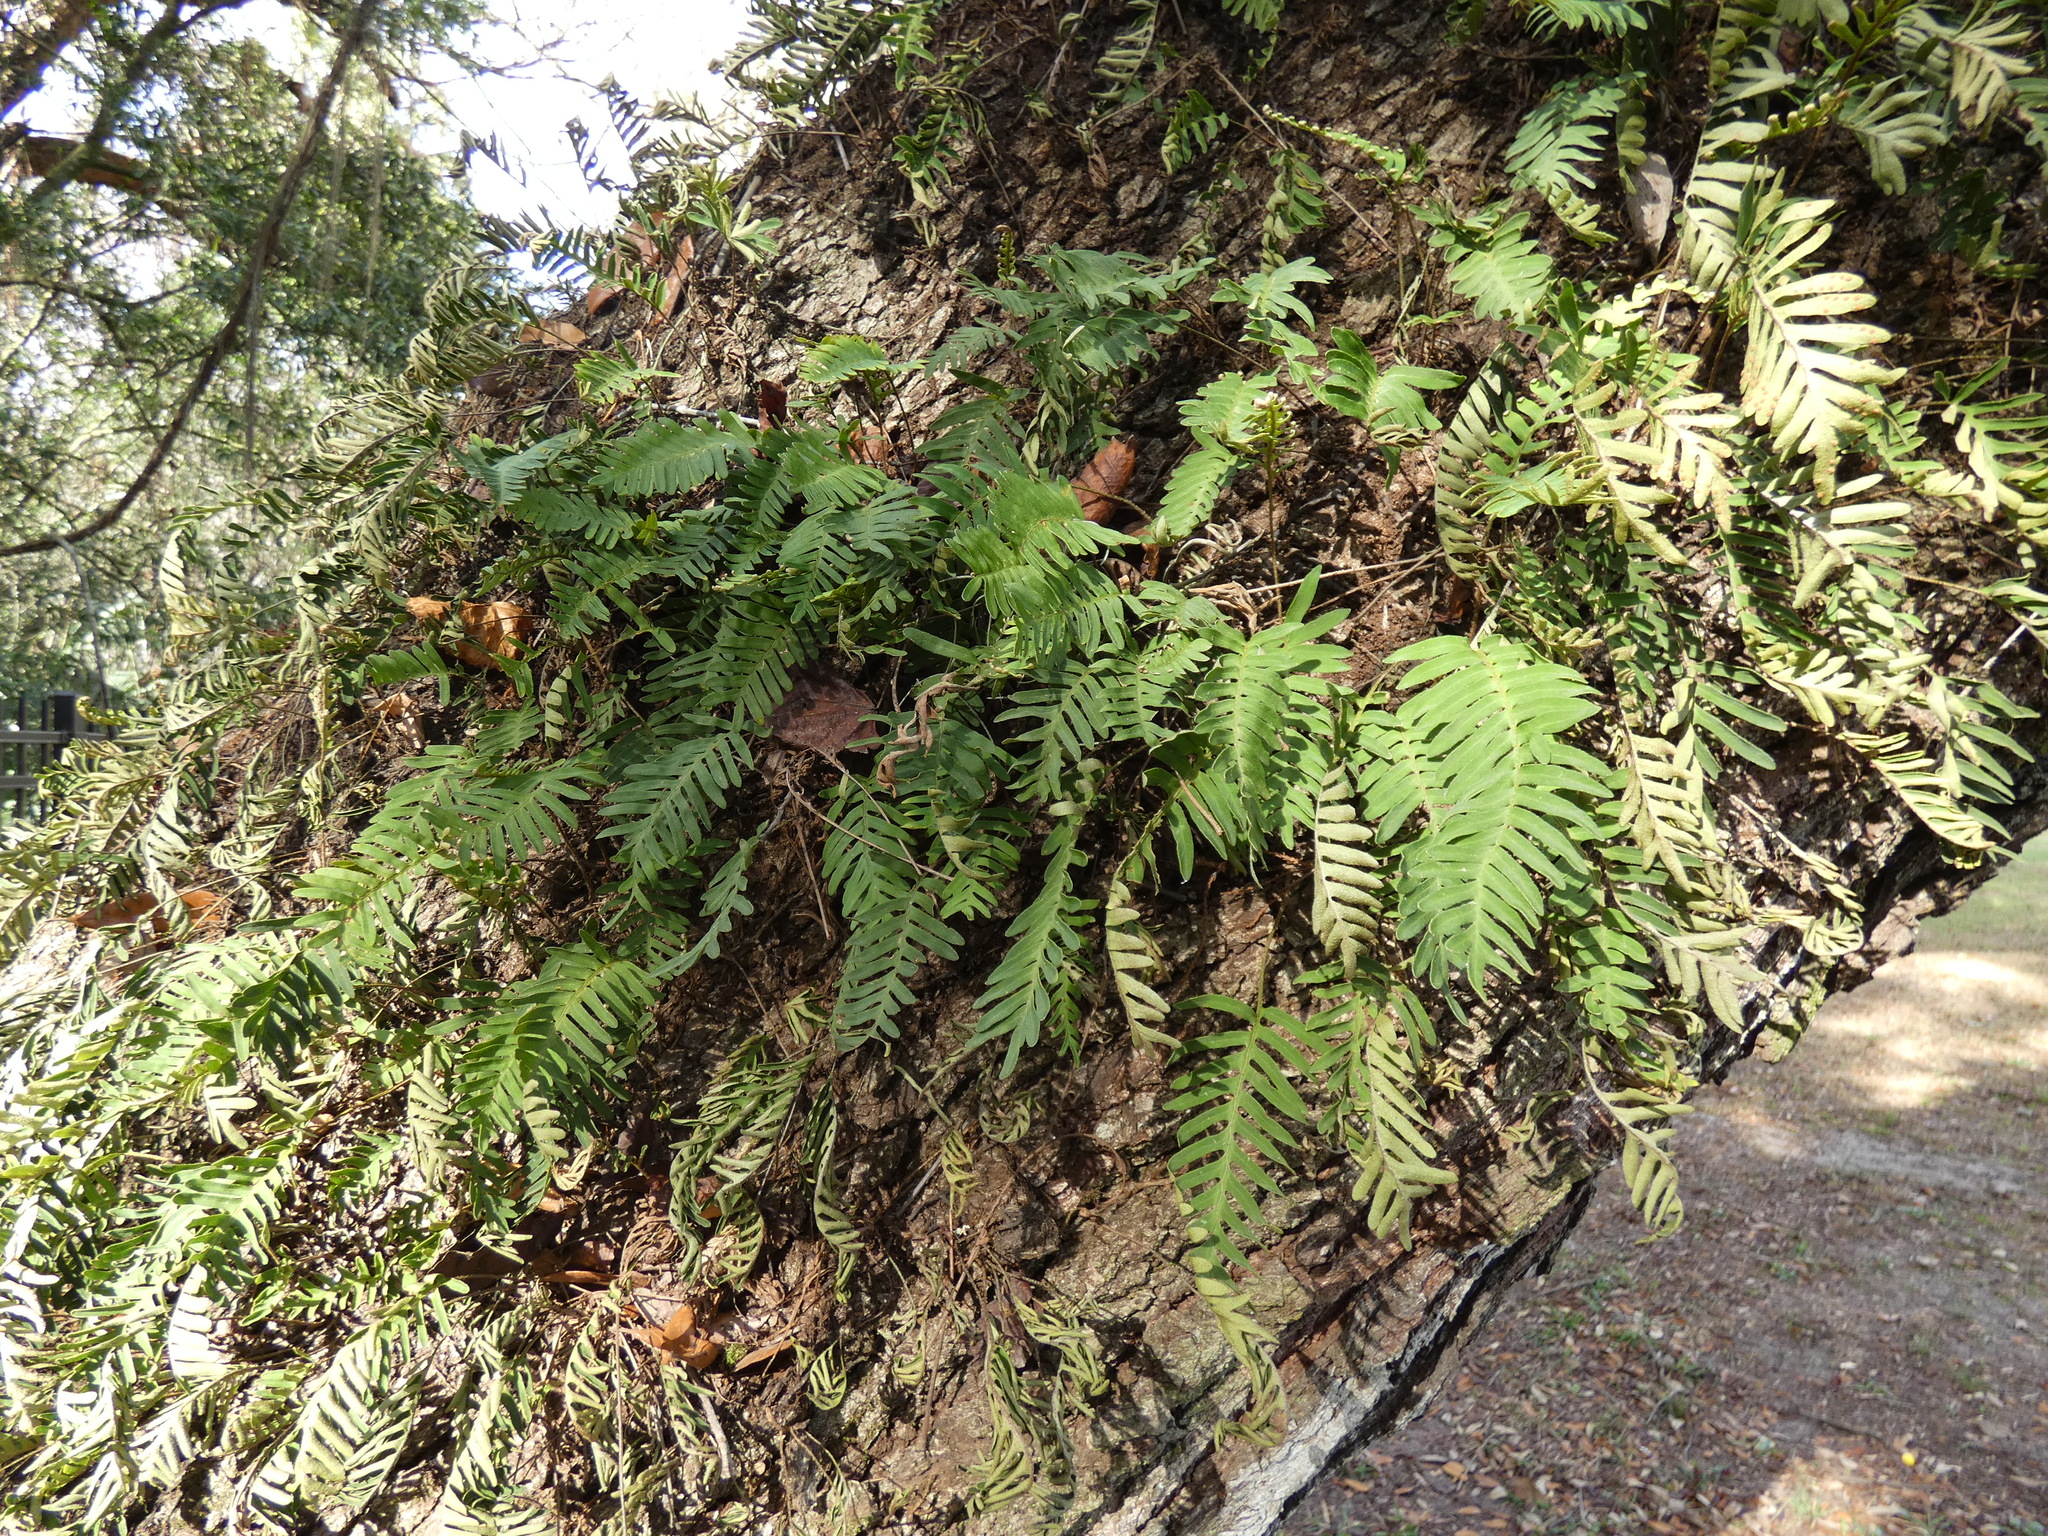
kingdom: Plantae
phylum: Tracheophyta
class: Polypodiopsida
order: Polypodiales
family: Polypodiaceae
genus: Pleopeltis
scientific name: Pleopeltis michauxiana
